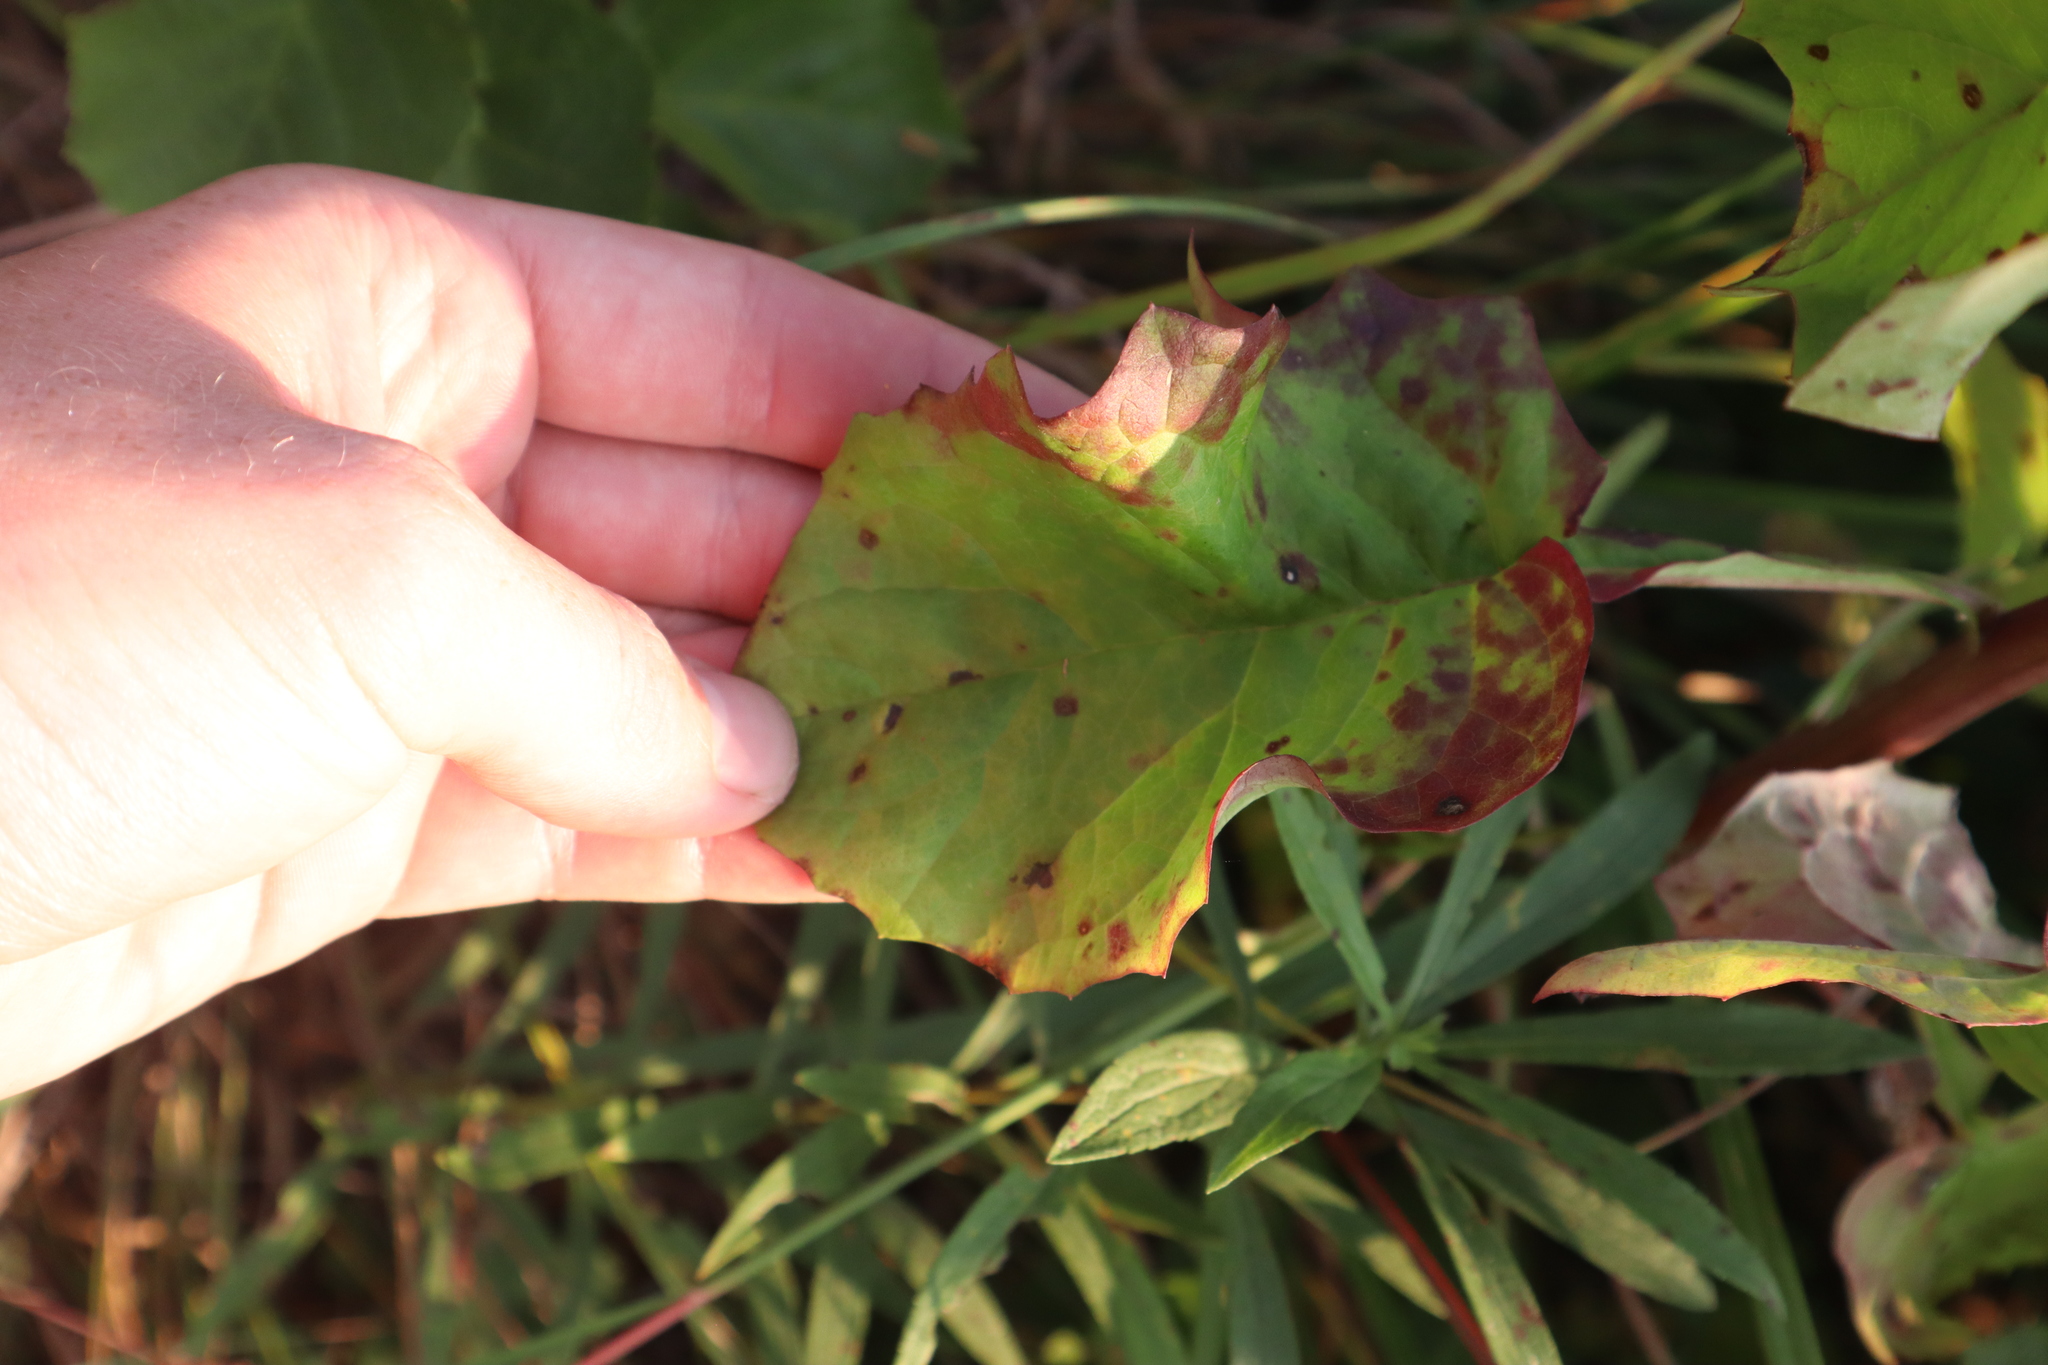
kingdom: Plantae
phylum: Tracheophyta
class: Magnoliopsida
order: Asterales
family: Asteraceae
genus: Nabalus
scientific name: Nabalus albus
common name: White rattlesnakeroot
